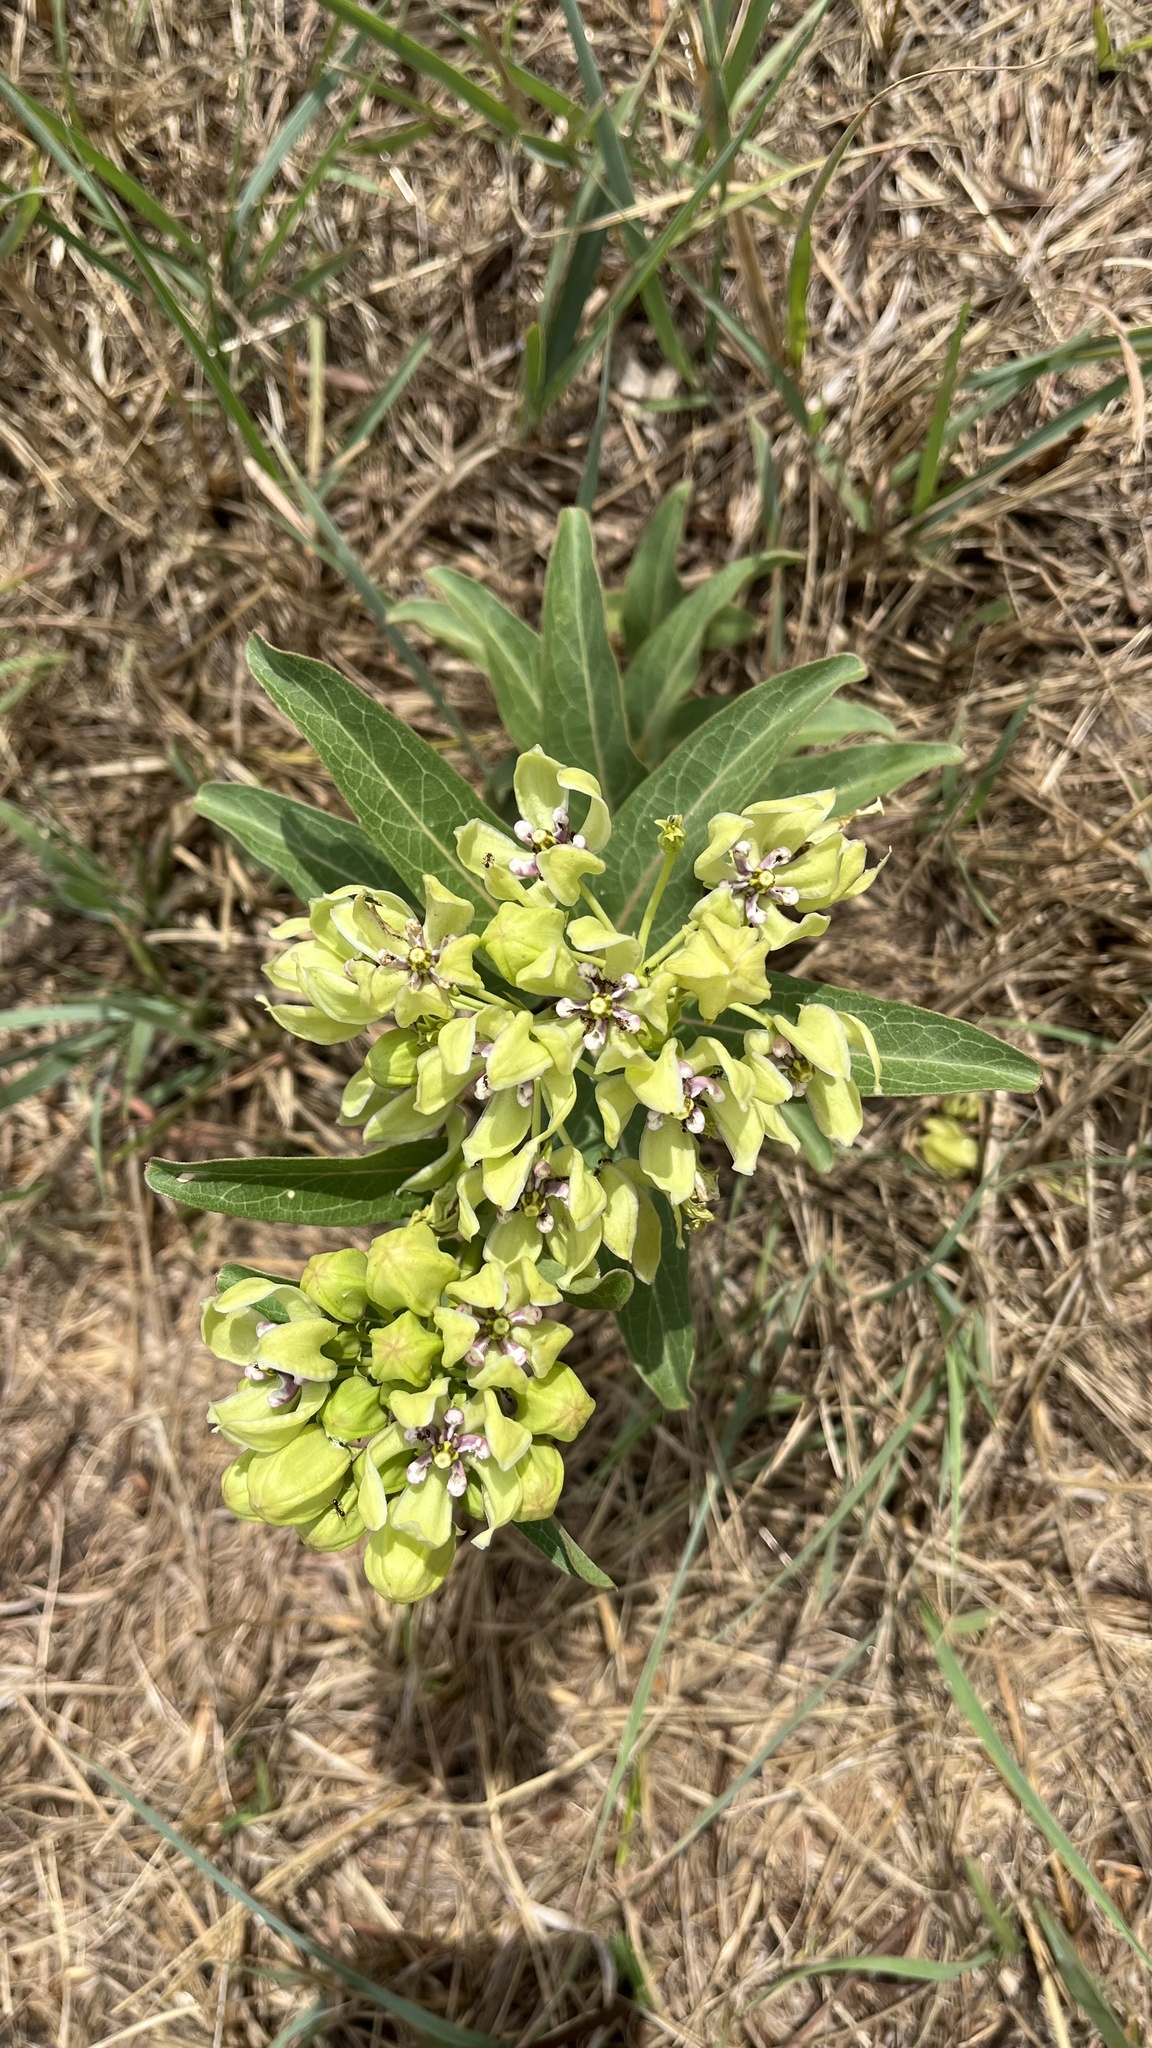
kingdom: Plantae
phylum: Tracheophyta
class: Magnoliopsida
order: Gentianales
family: Apocynaceae
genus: Asclepias
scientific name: Asclepias viridis
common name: Antelope-horns
